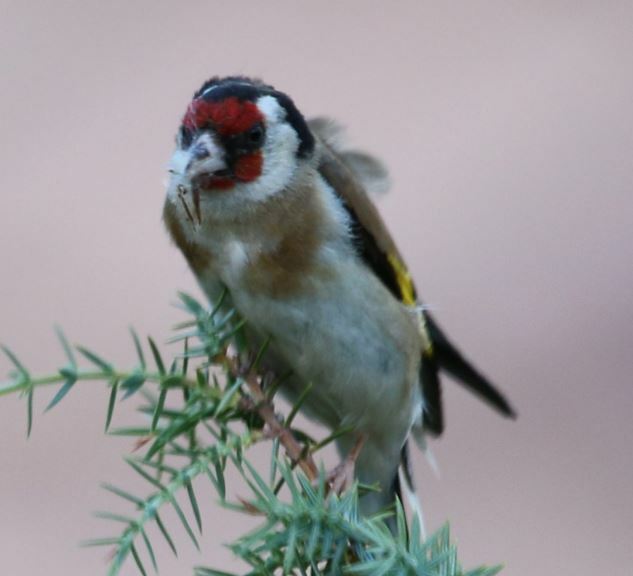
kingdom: Animalia
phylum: Chordata
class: Aves
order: Passeriformes
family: Fringillidae
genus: Carduelis
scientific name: Carduelis carduelis
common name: European goldfinch
